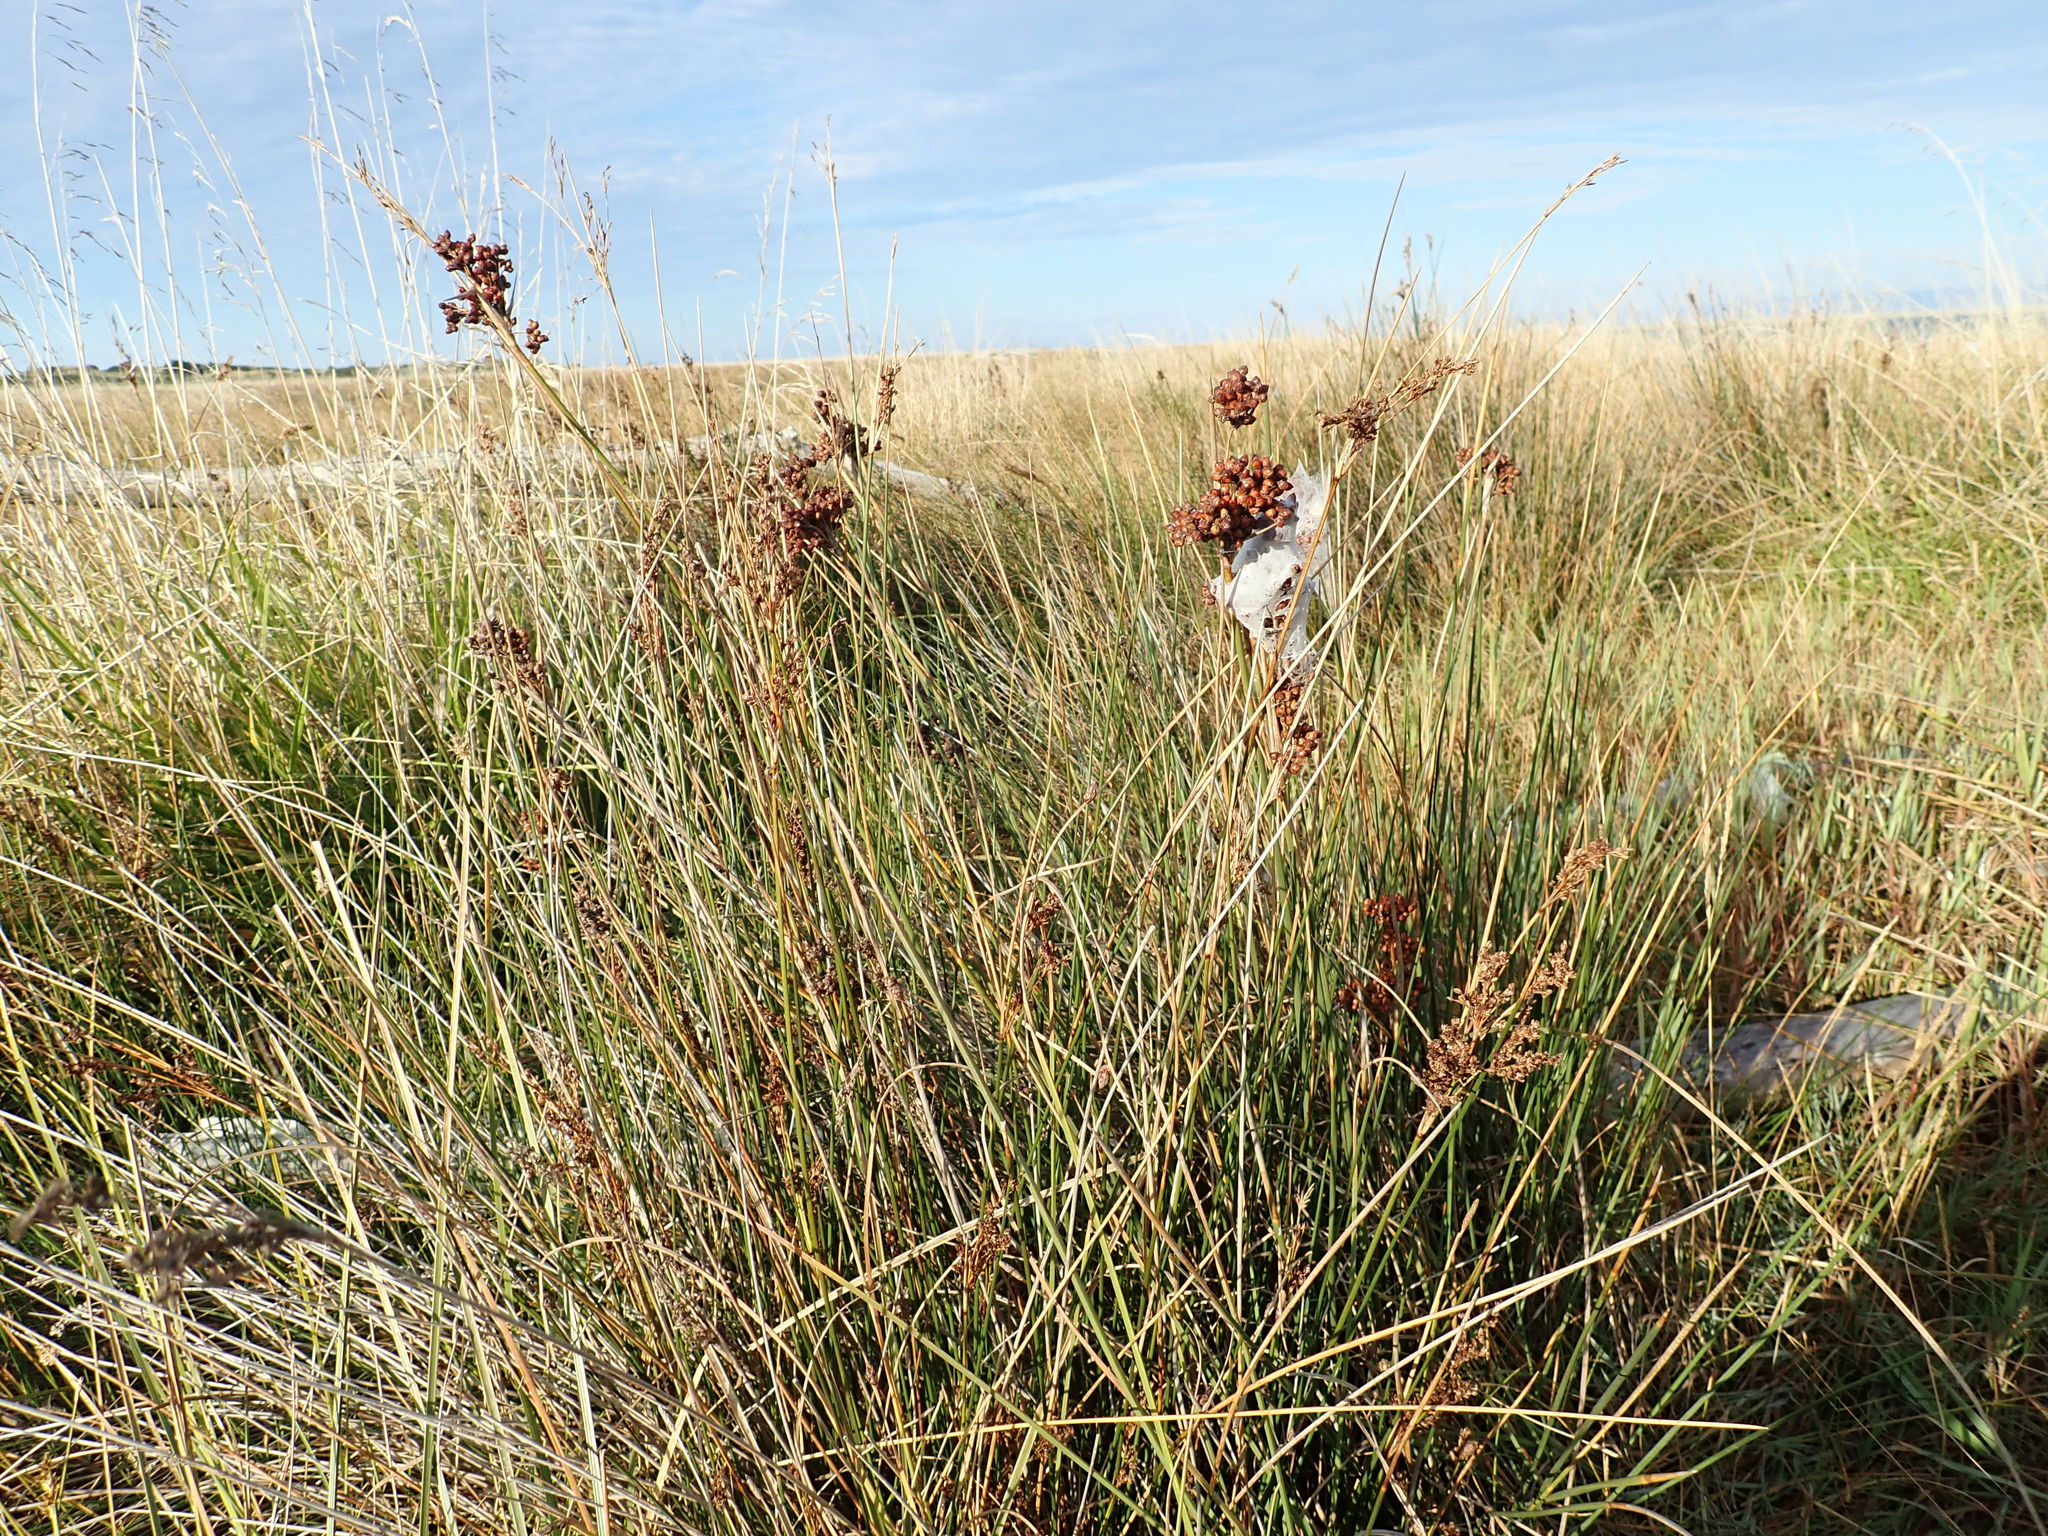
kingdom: Plantae
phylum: Tracheophyta
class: Liliopsida
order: Poales
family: Juncaceae
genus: Juncus
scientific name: Juncus acutus
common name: Sharp rush
